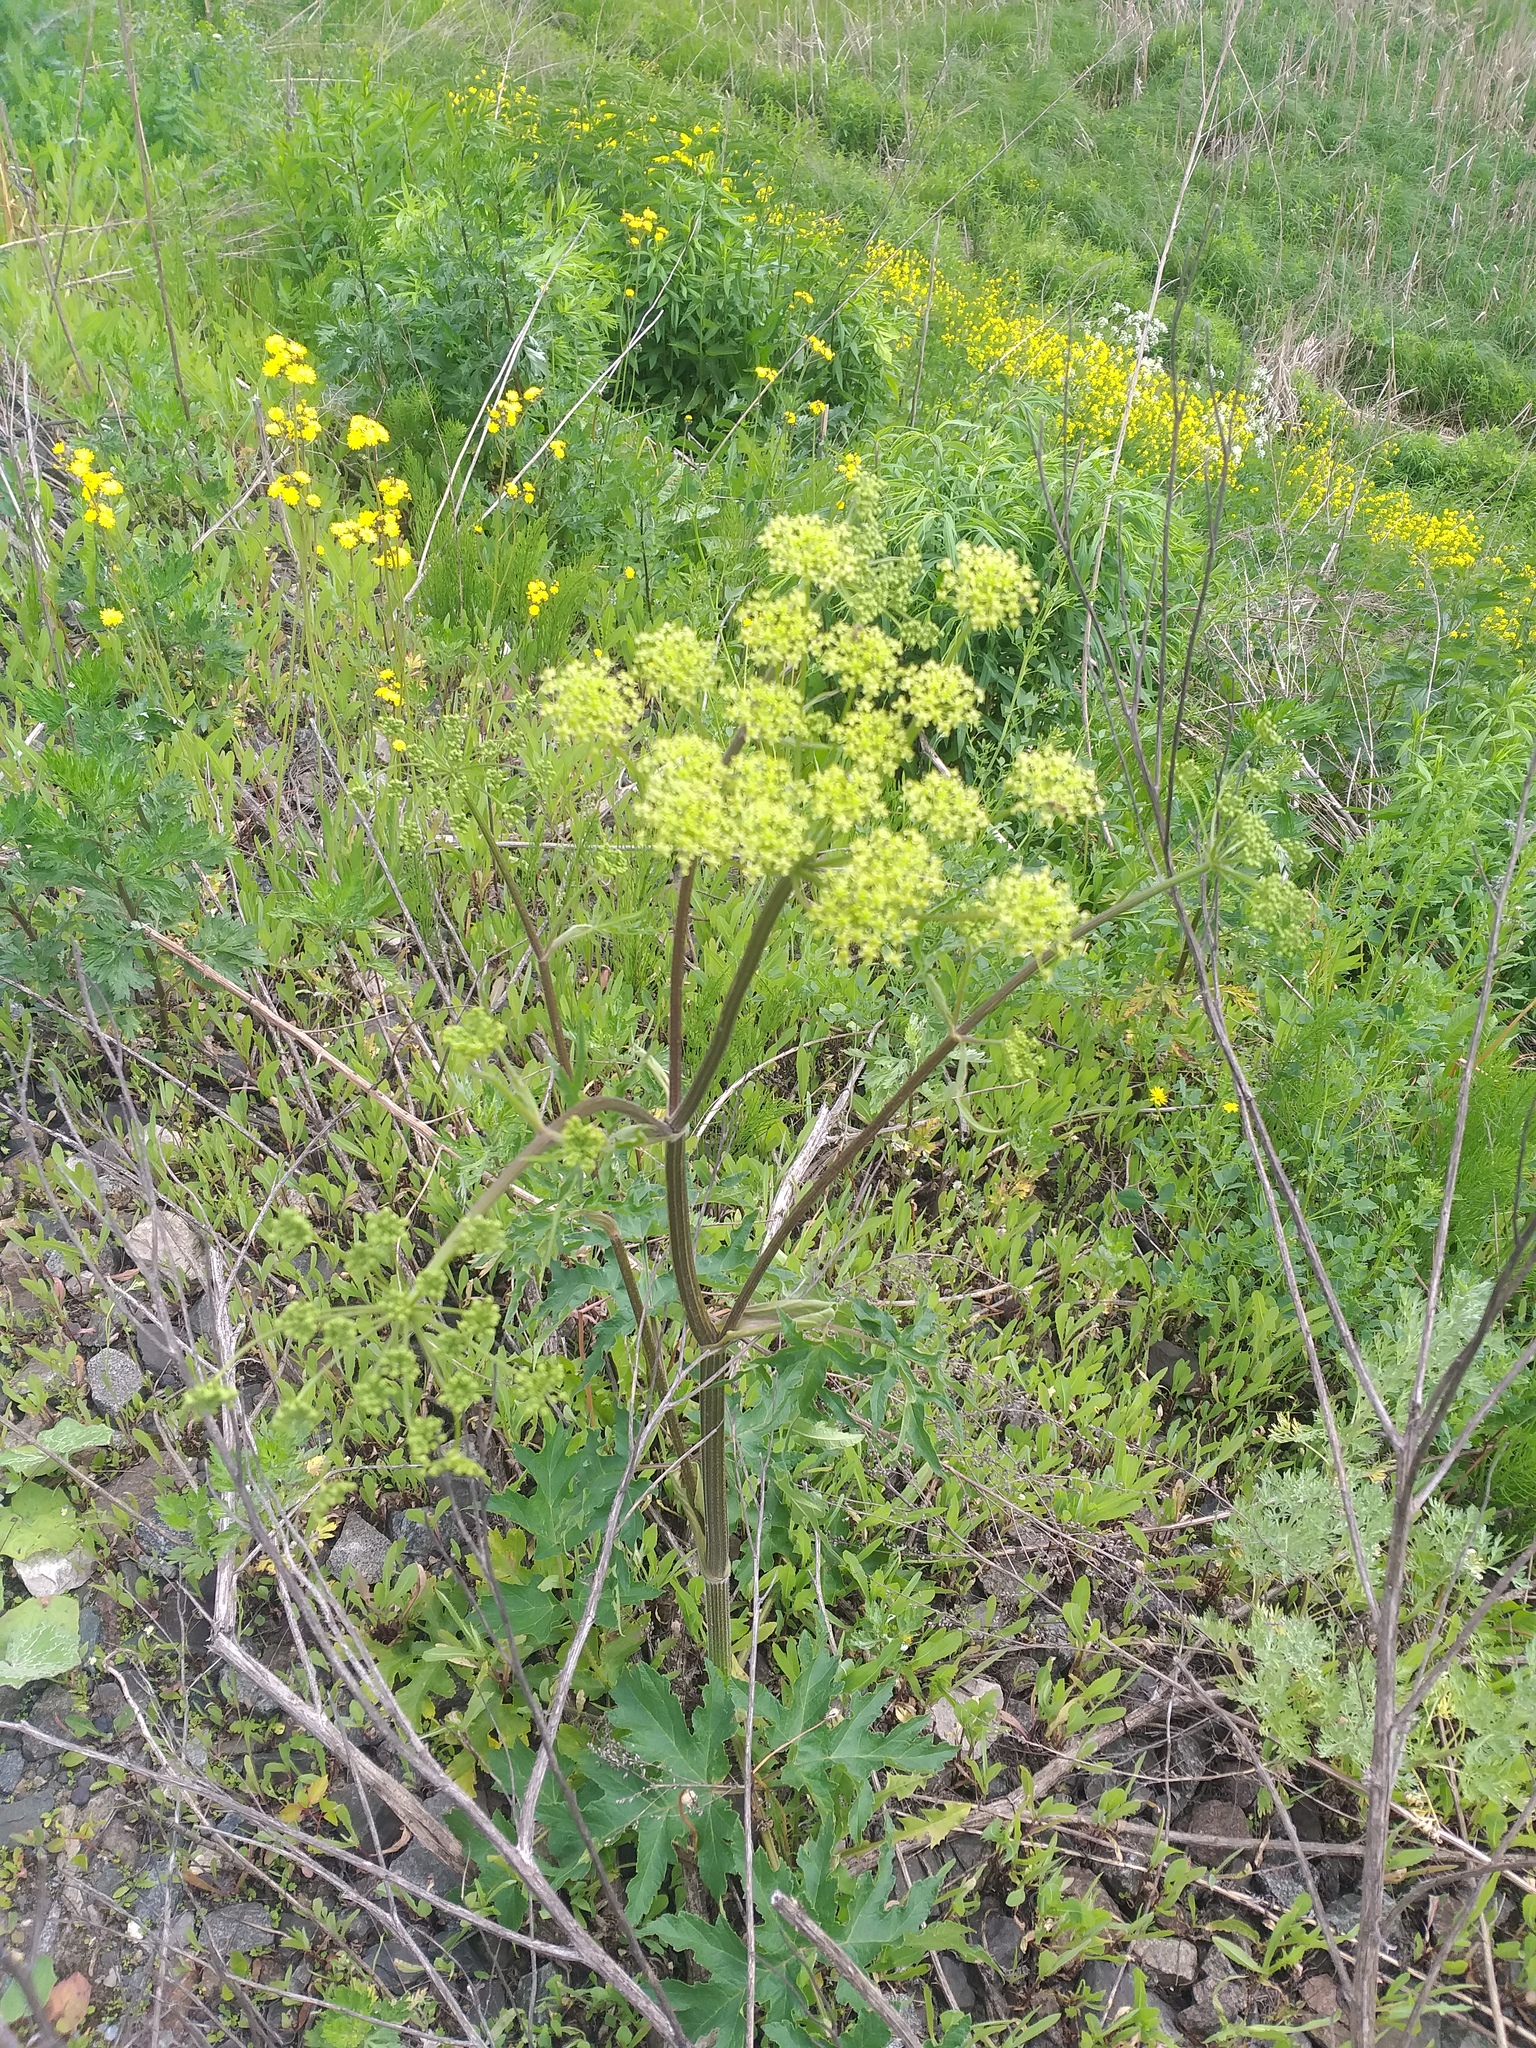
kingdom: Plantae
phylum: Tracheophyta
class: Magnoliopsida
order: Apiales
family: Apiaceae
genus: Heracleum
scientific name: Heracleum sphondylium
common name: Hogweed
